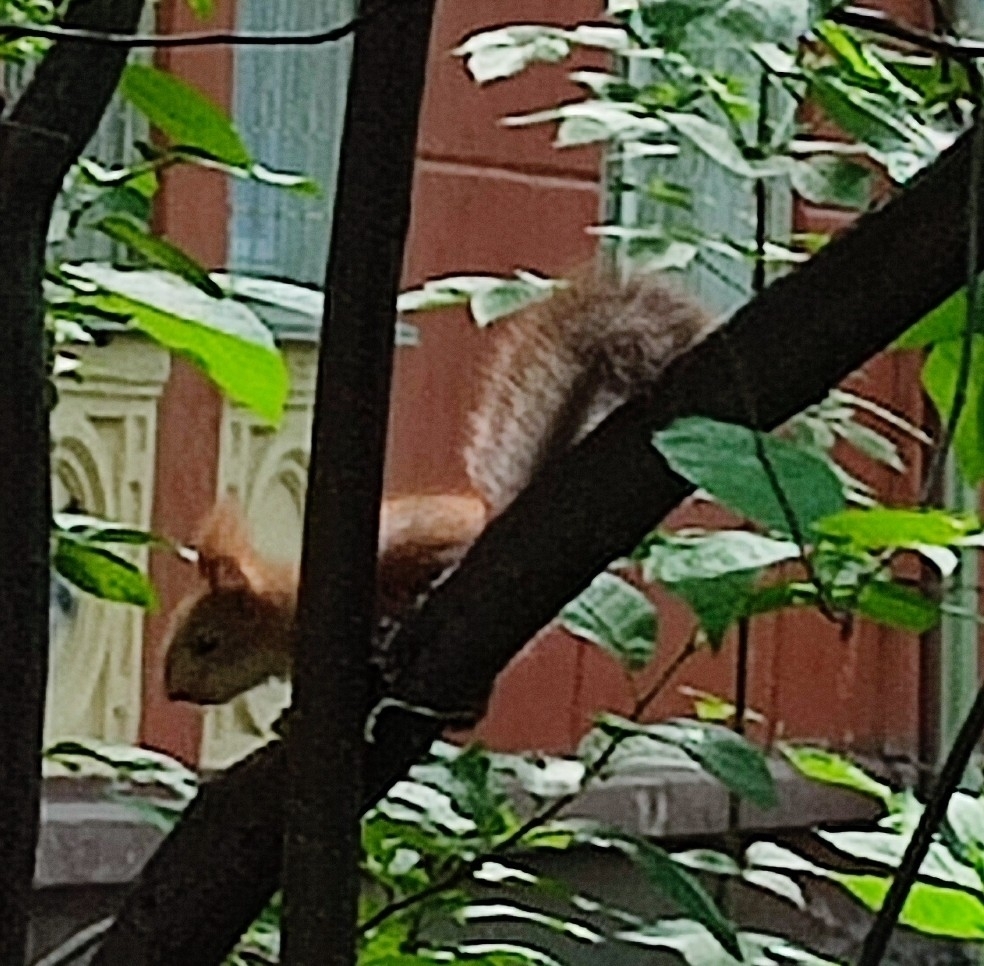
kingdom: Animalia
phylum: Chordata
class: Mammalia
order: Rodentia
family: Sciuridae
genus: Sciurus
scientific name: Sciurus vulgaris
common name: Eurasian red squirrel
